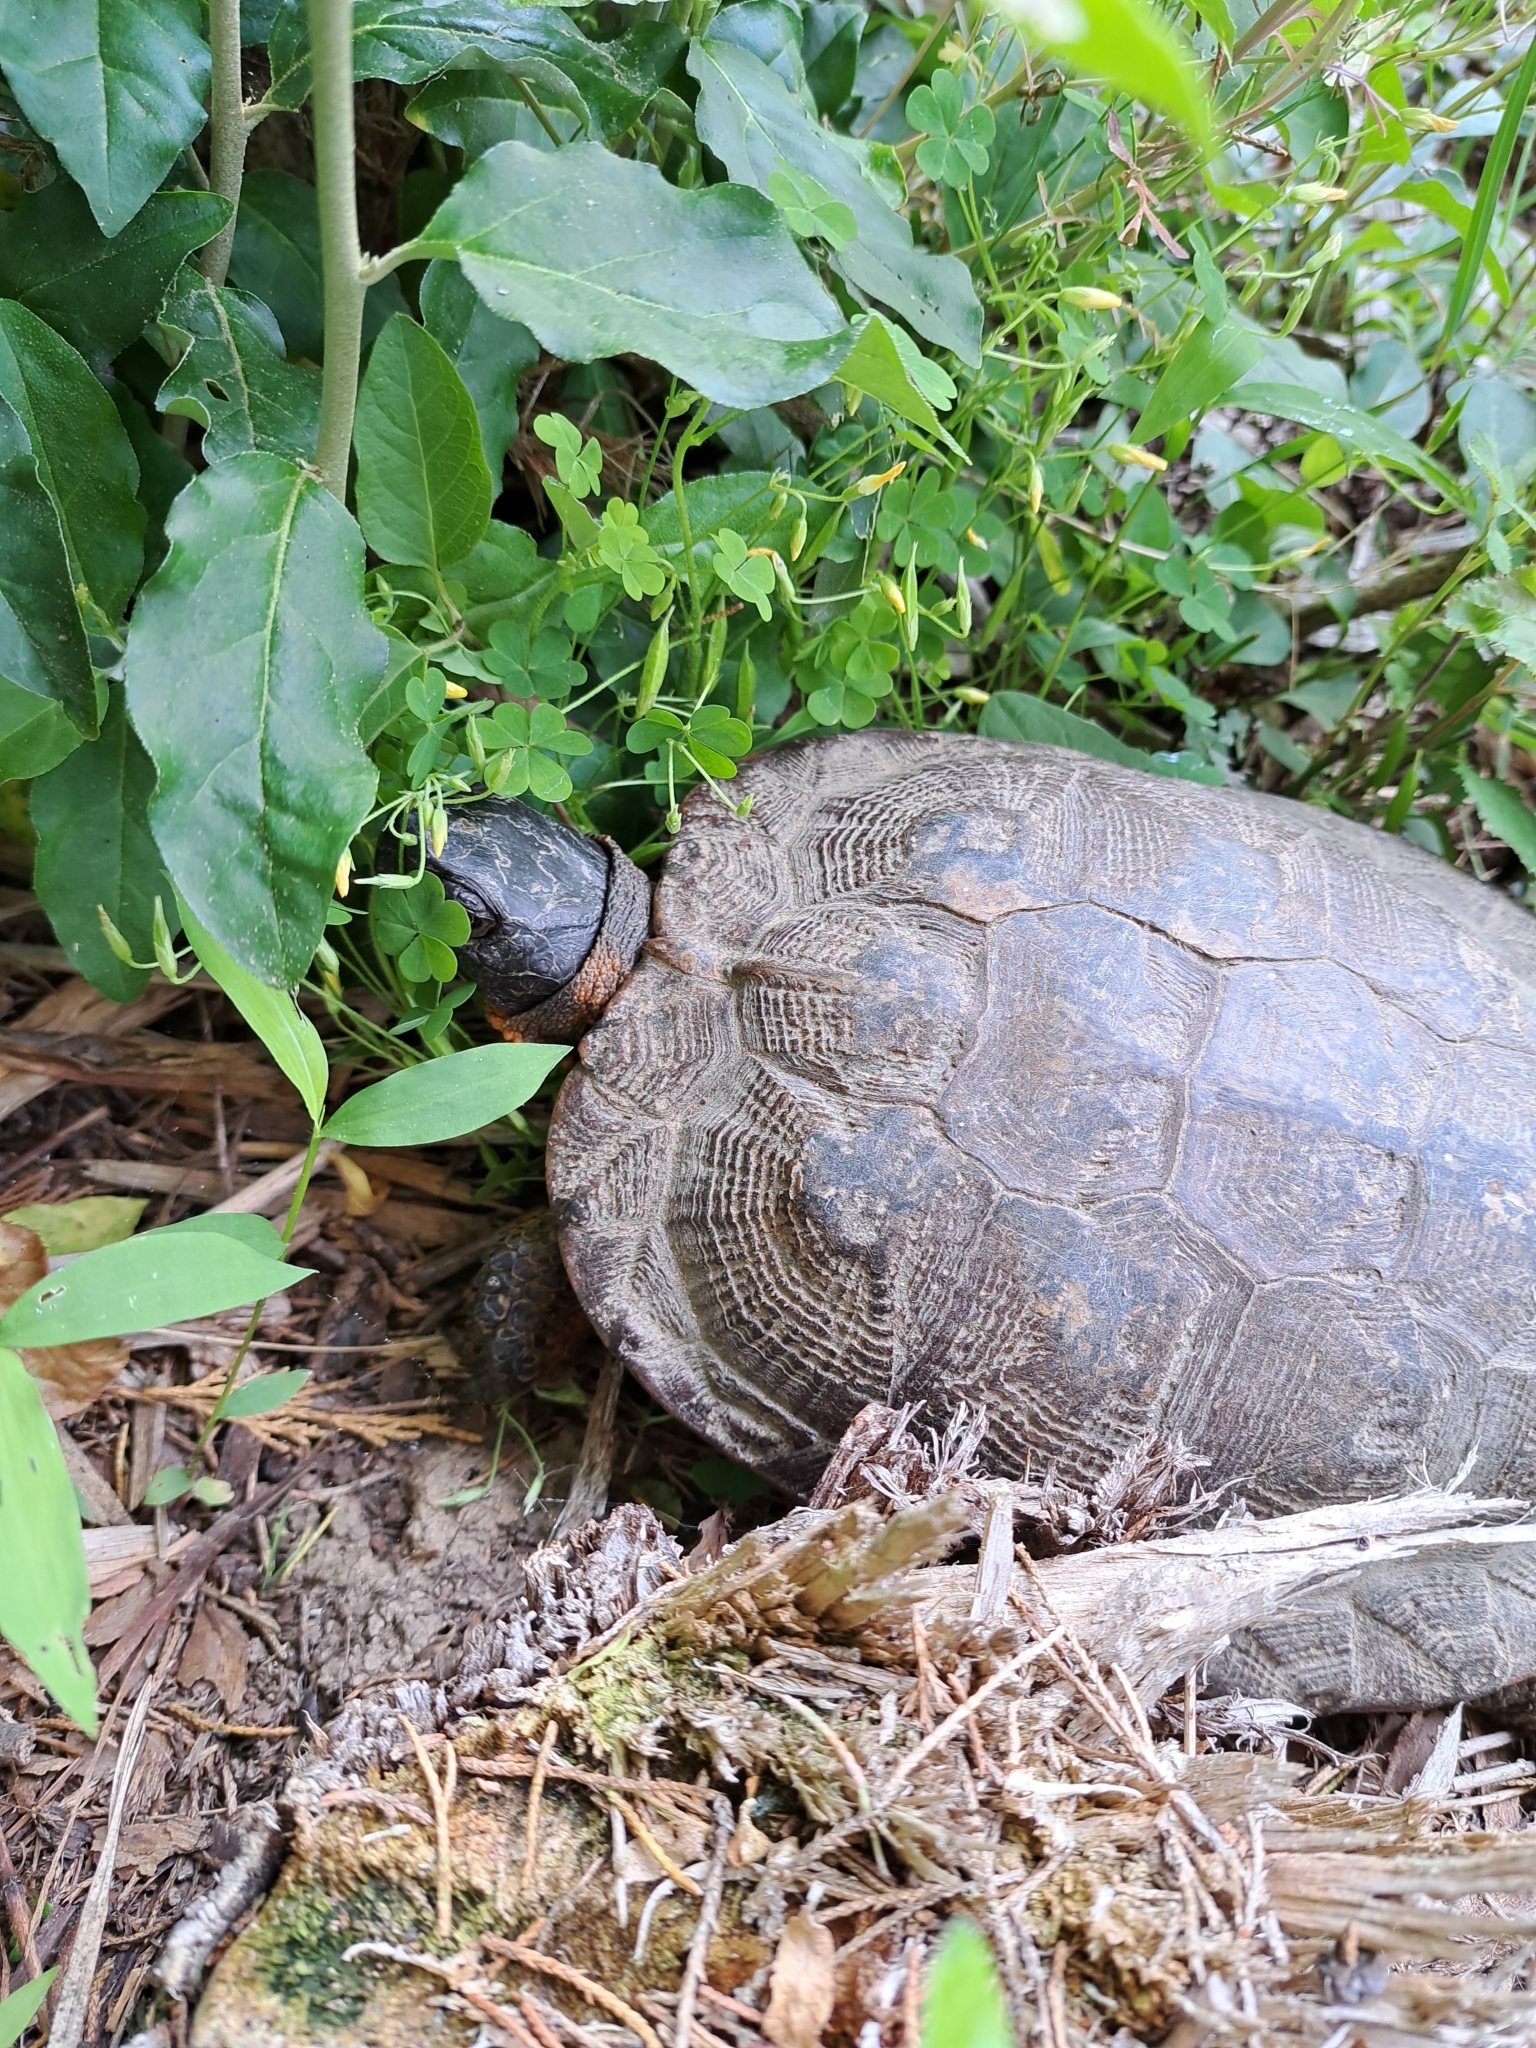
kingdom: Animalia
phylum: Chordata
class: Testudines
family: Emydidae
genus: Glyptemys
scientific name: Glyptemys insculpta
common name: Wood turtle
